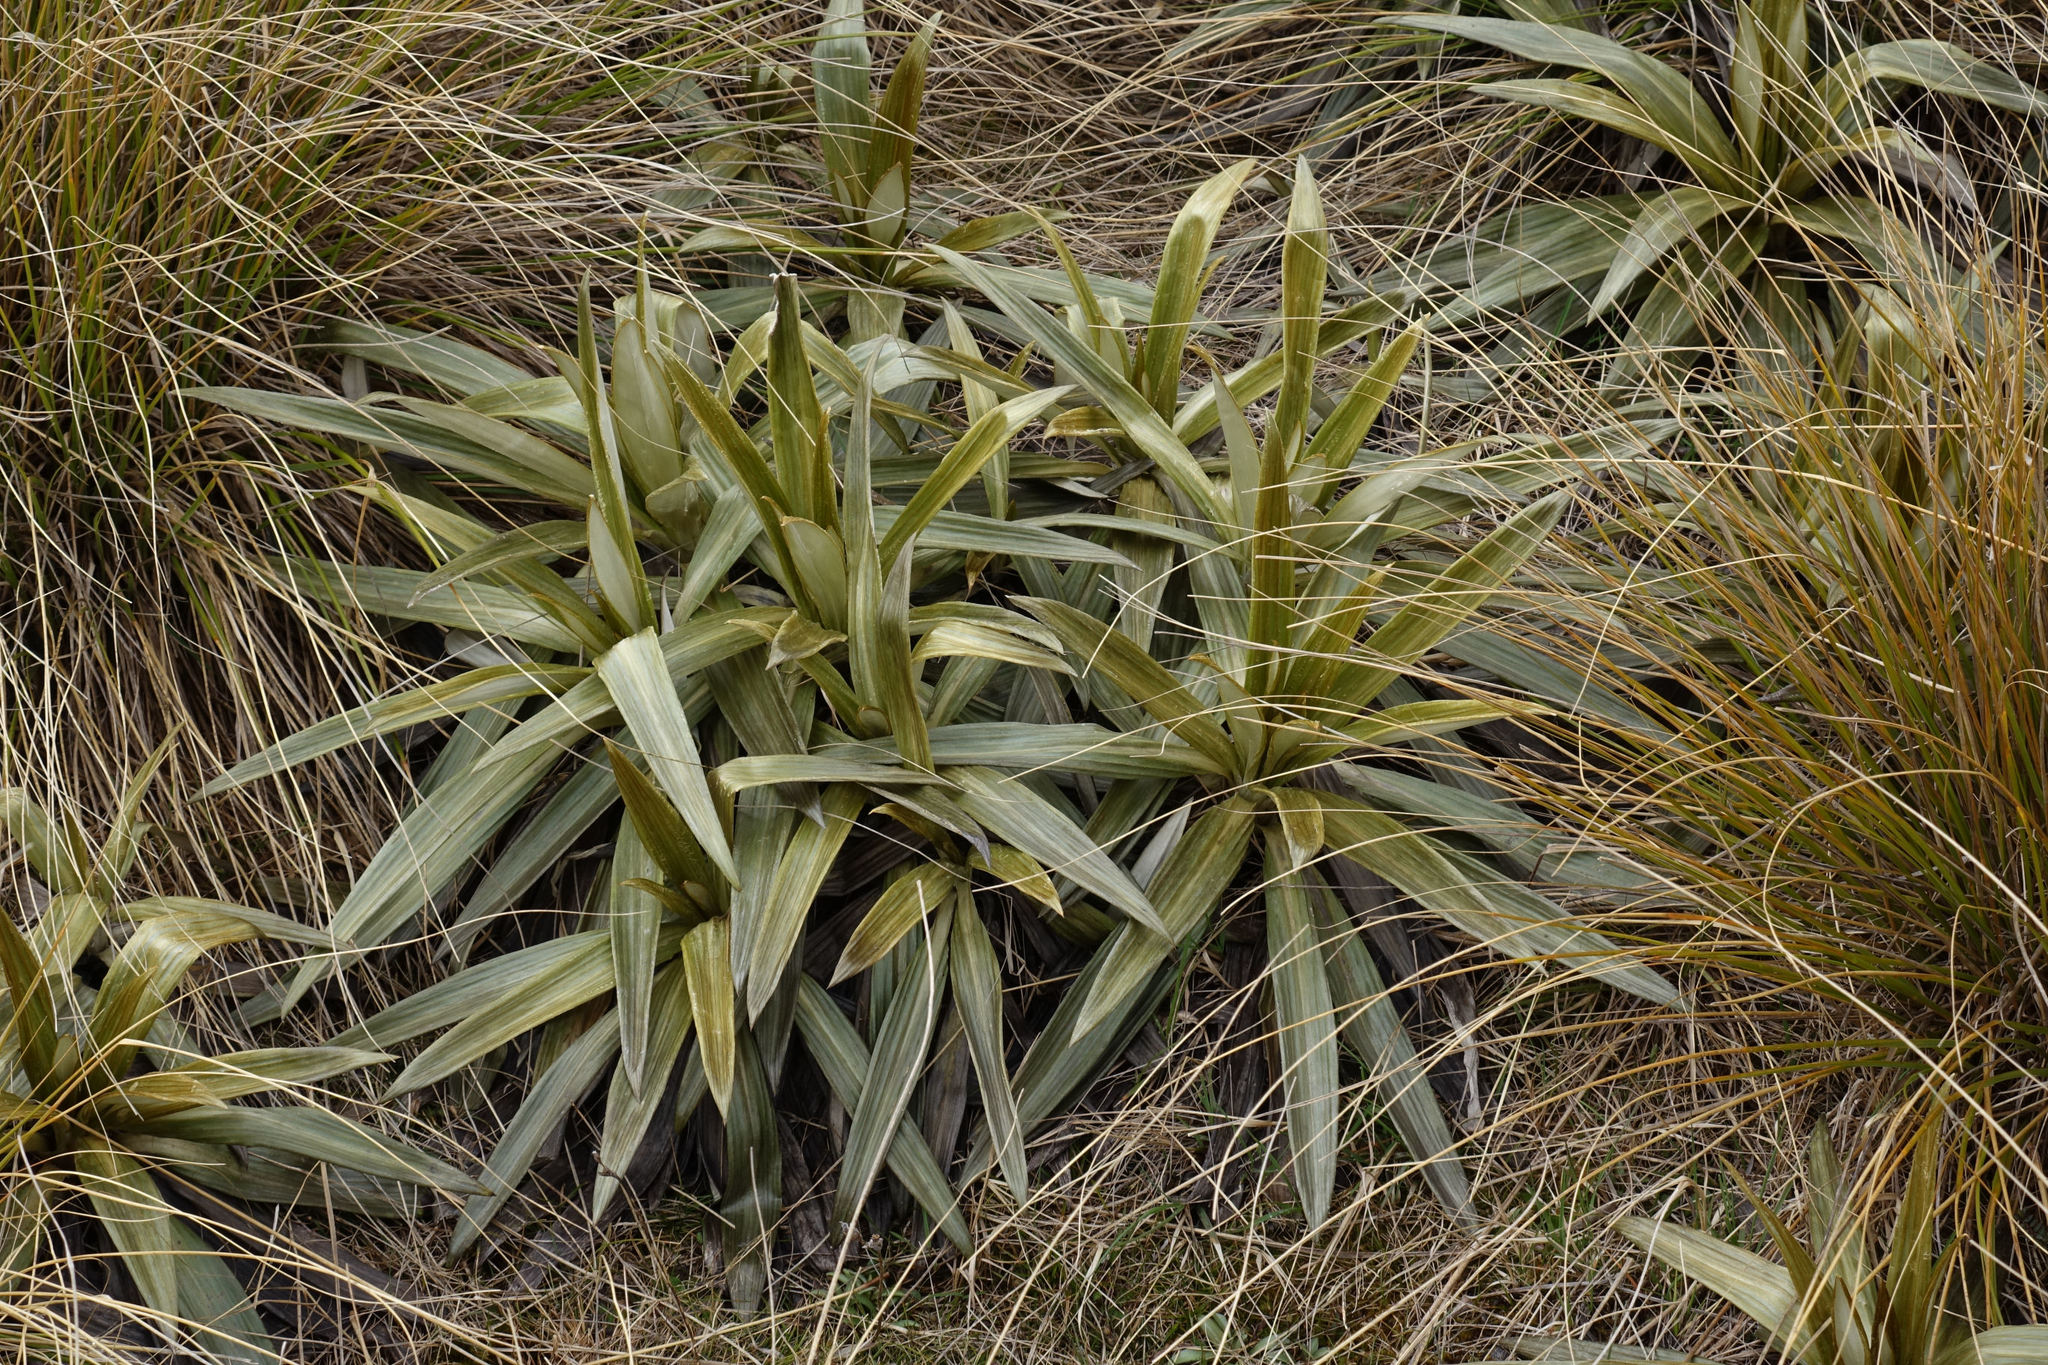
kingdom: Plantae
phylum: Tracheophyta
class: Magnoliopsida
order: Asterales
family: Asteraceae
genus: Celmisia
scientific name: Celmisia semicordata
